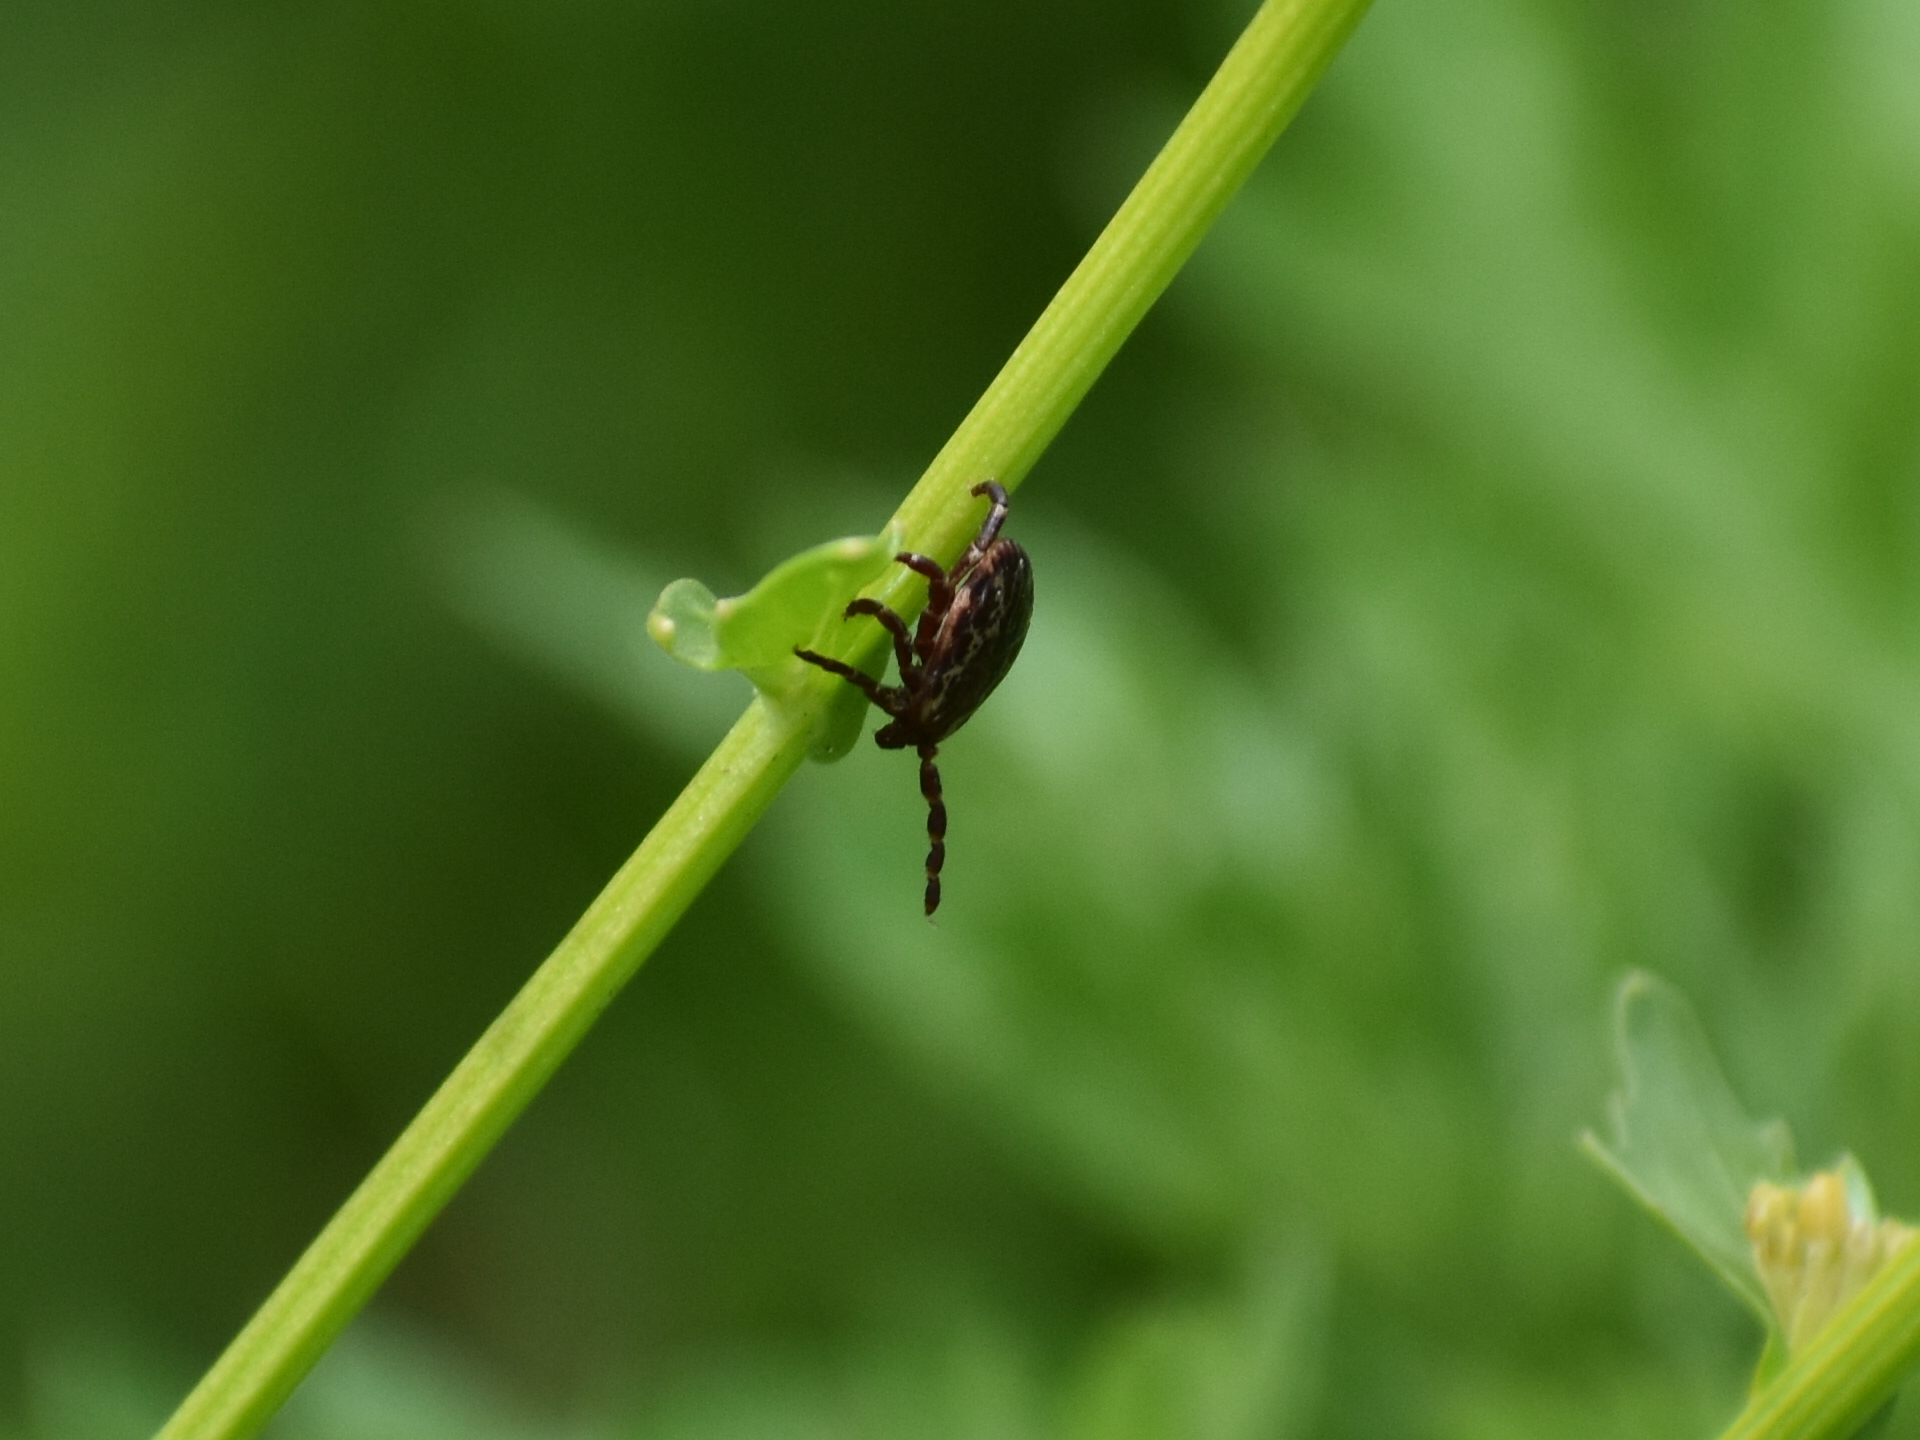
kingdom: Animalia
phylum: Arthropoda
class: Arachnida
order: Ixodida
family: Ixodidae
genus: Dermacentor
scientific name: Dermacentor variabilis
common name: American dog tick
